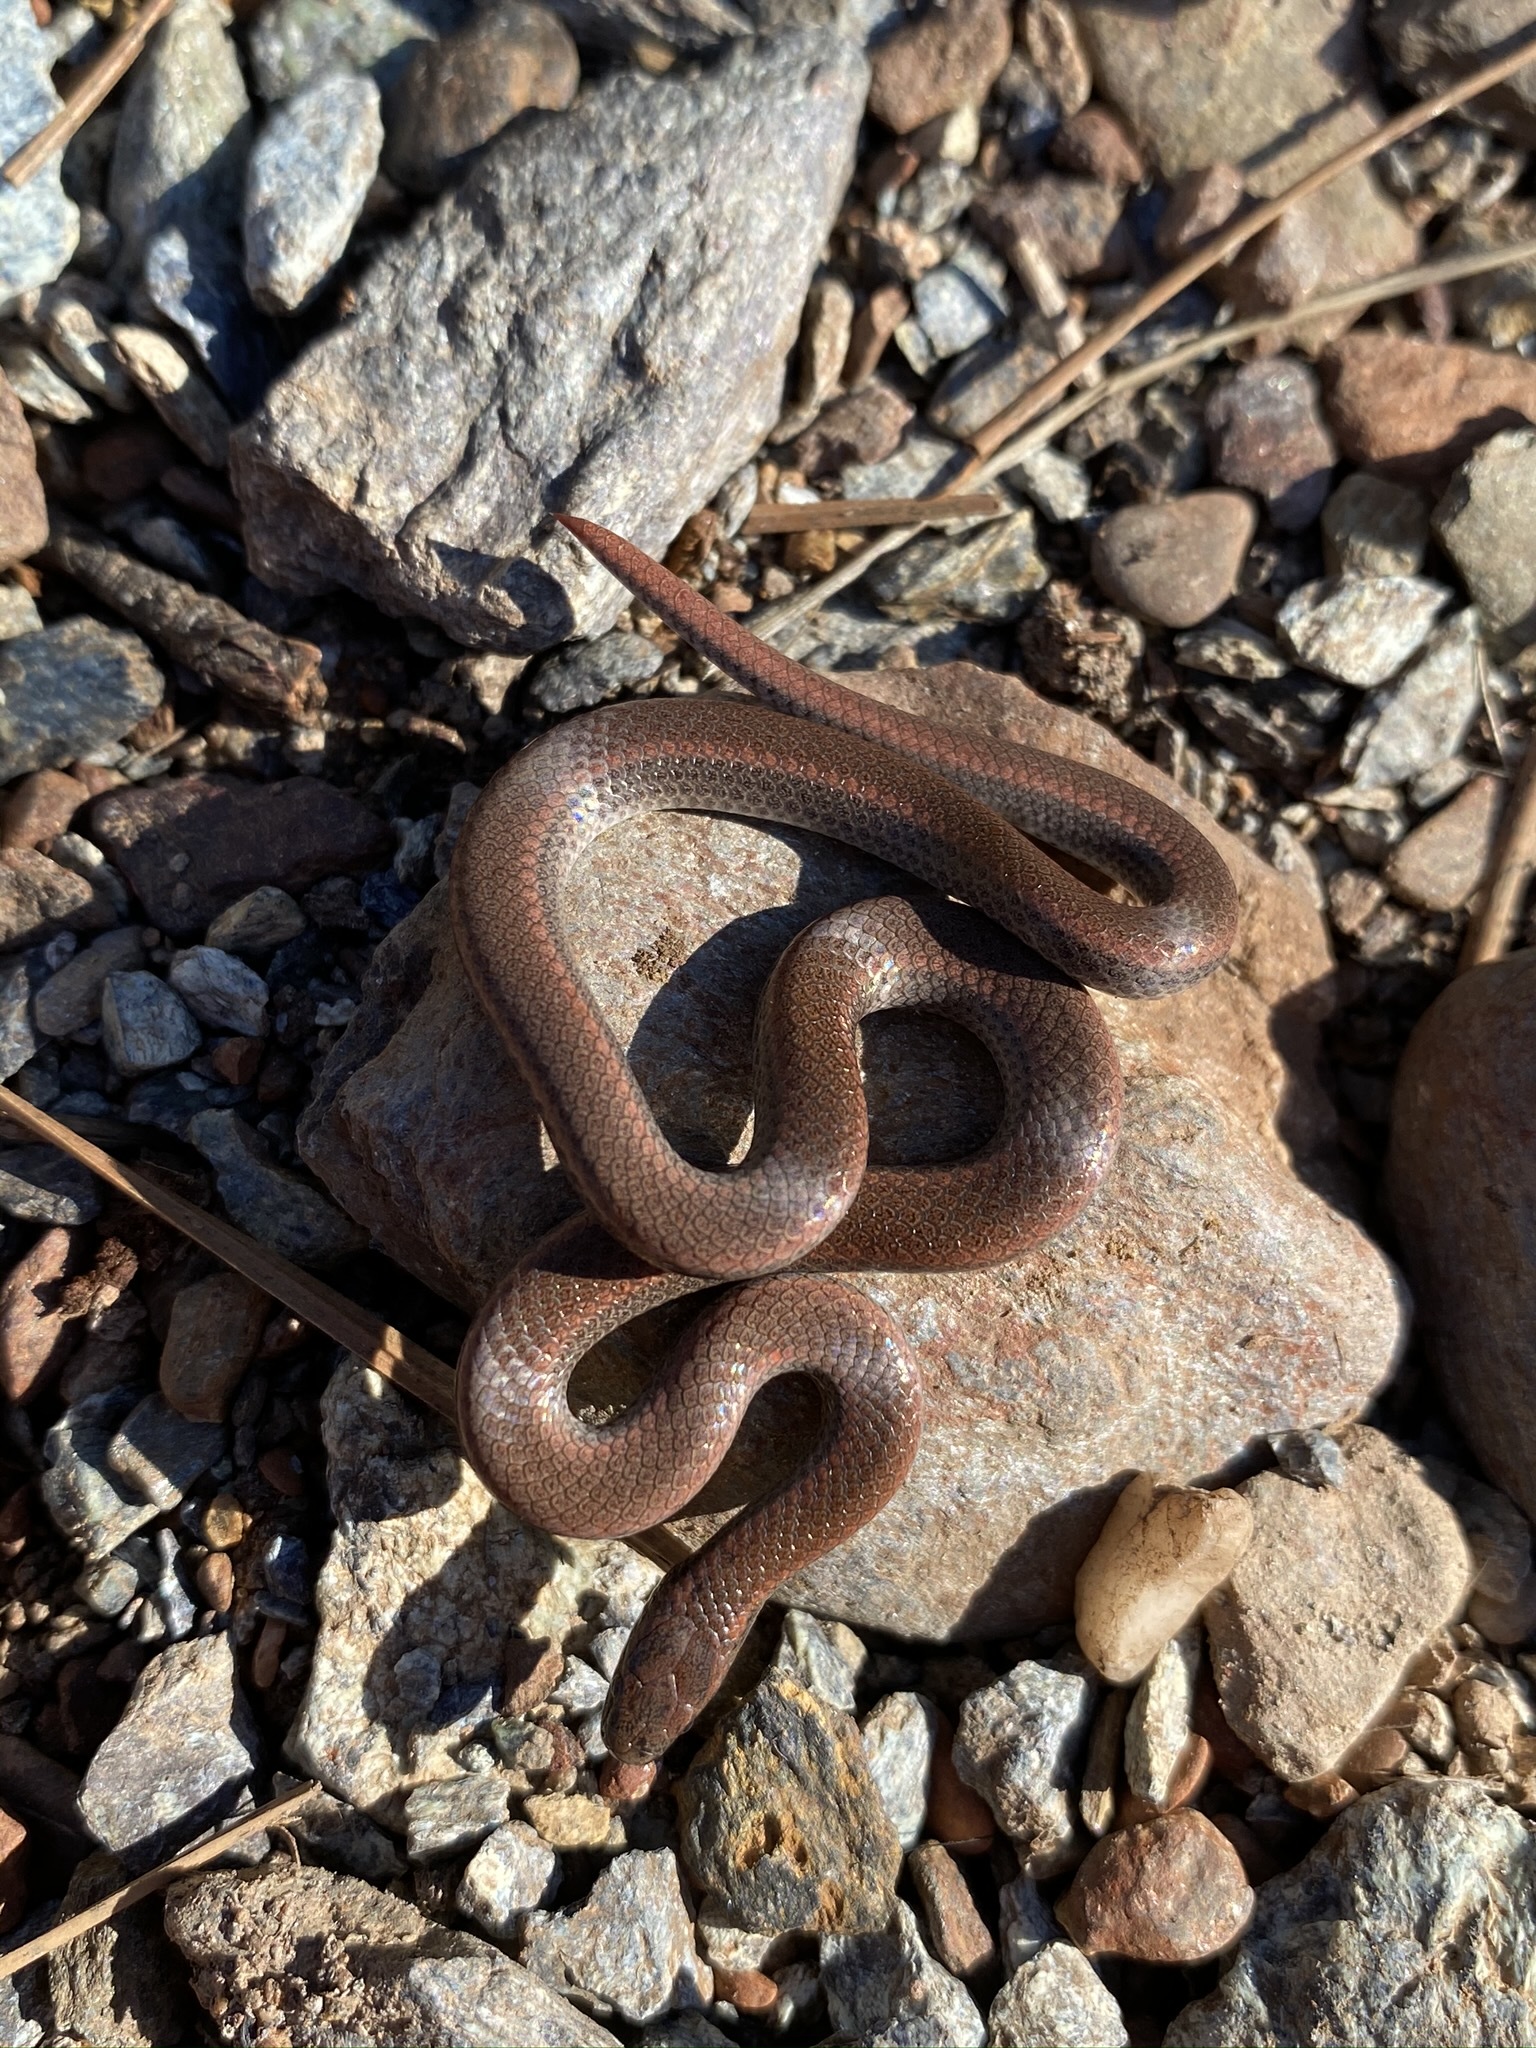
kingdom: Animalia
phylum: Chordata
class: Squamata
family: Colubridae
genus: Contia
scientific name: Contia tenuis
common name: Sharptail snake
